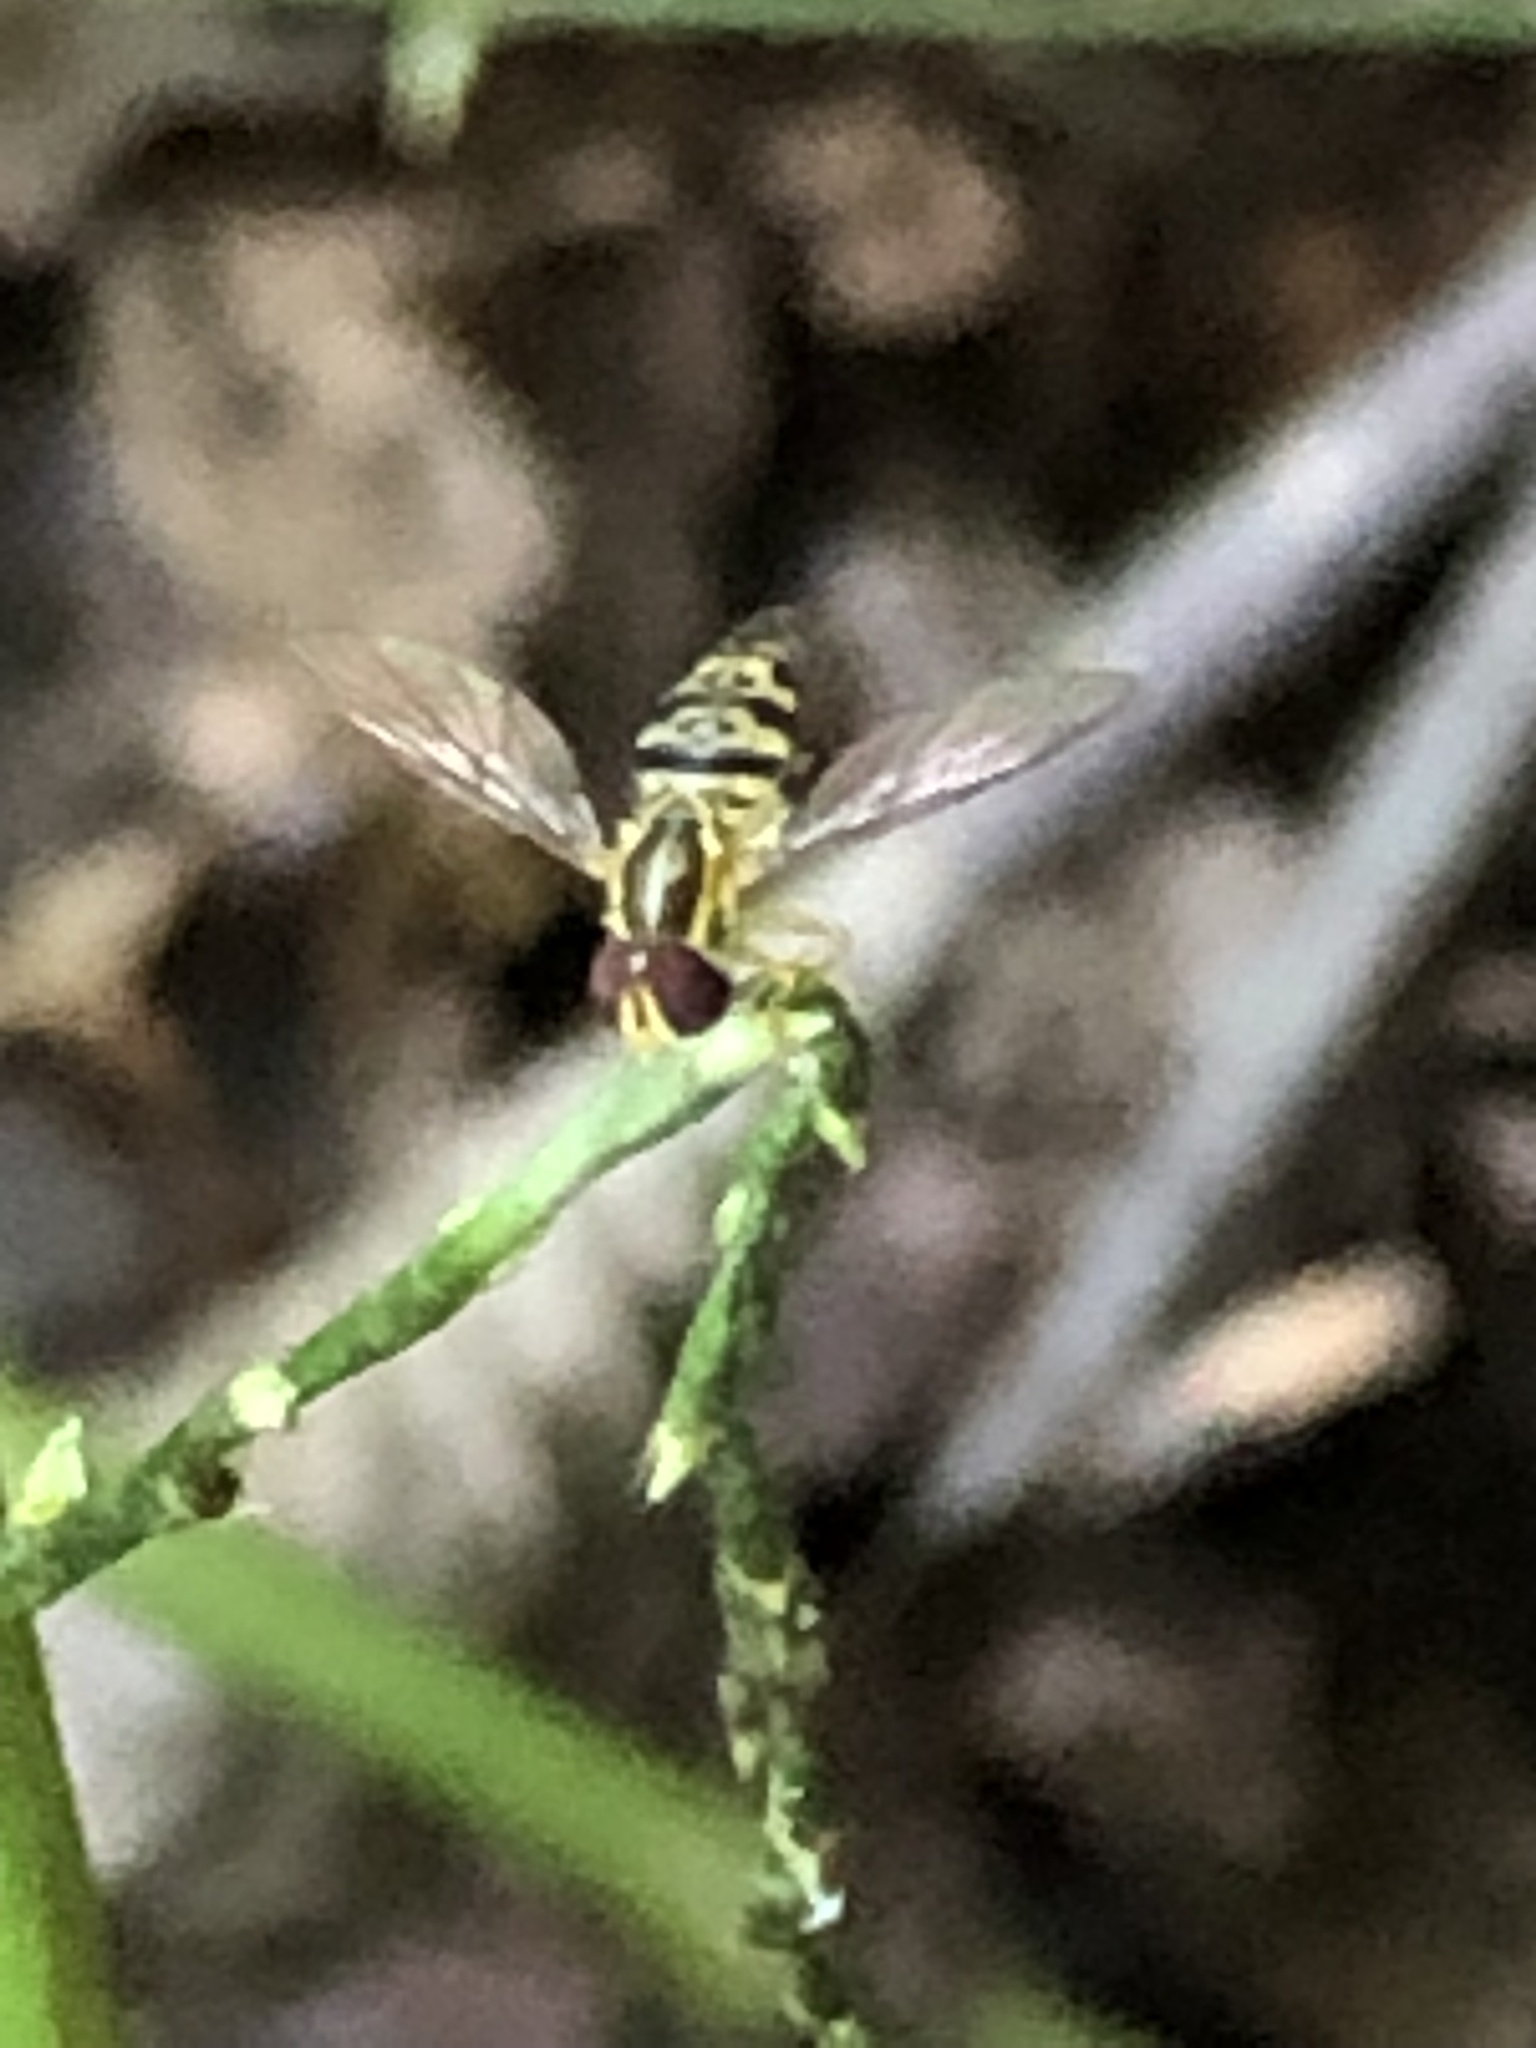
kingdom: Animalia
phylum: Arthropoda
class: Insecta
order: Diptera
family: Syrphidae
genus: Toxomerus
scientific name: Toxomerus geminatus
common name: Eastern calligrapher
